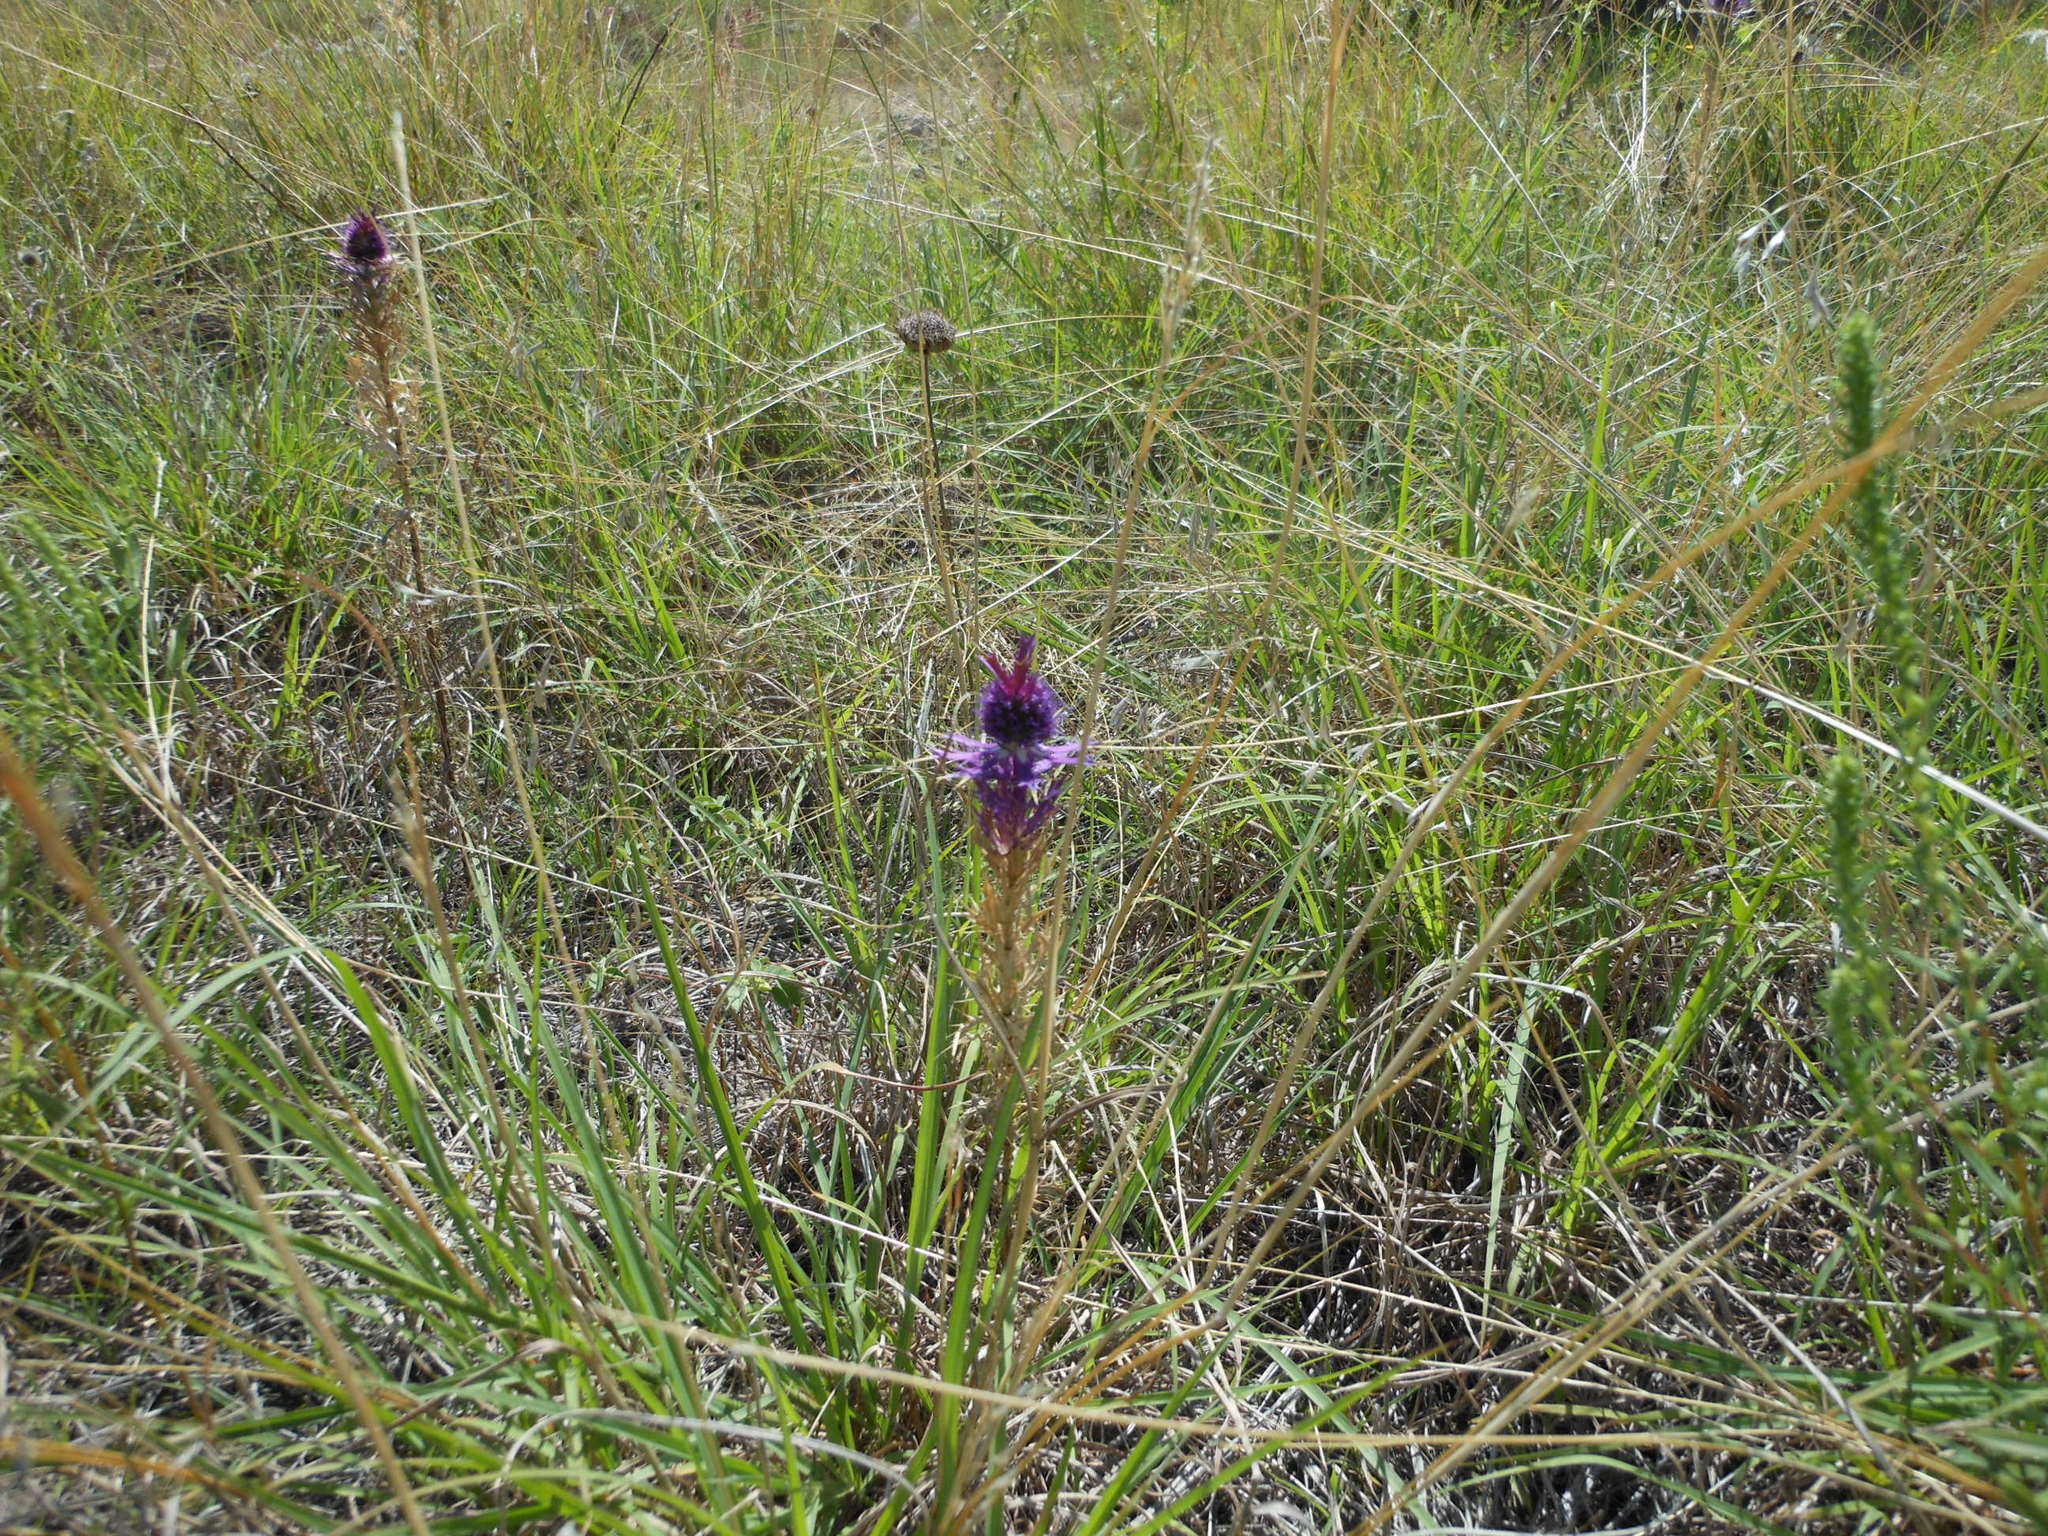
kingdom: Plantae
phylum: Tracheophyta
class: Magnoliopsida
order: Apiales
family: Apiaceae
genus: Eryngium
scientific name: Eryngium leavenworthii
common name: Leavenworth's eryngo
